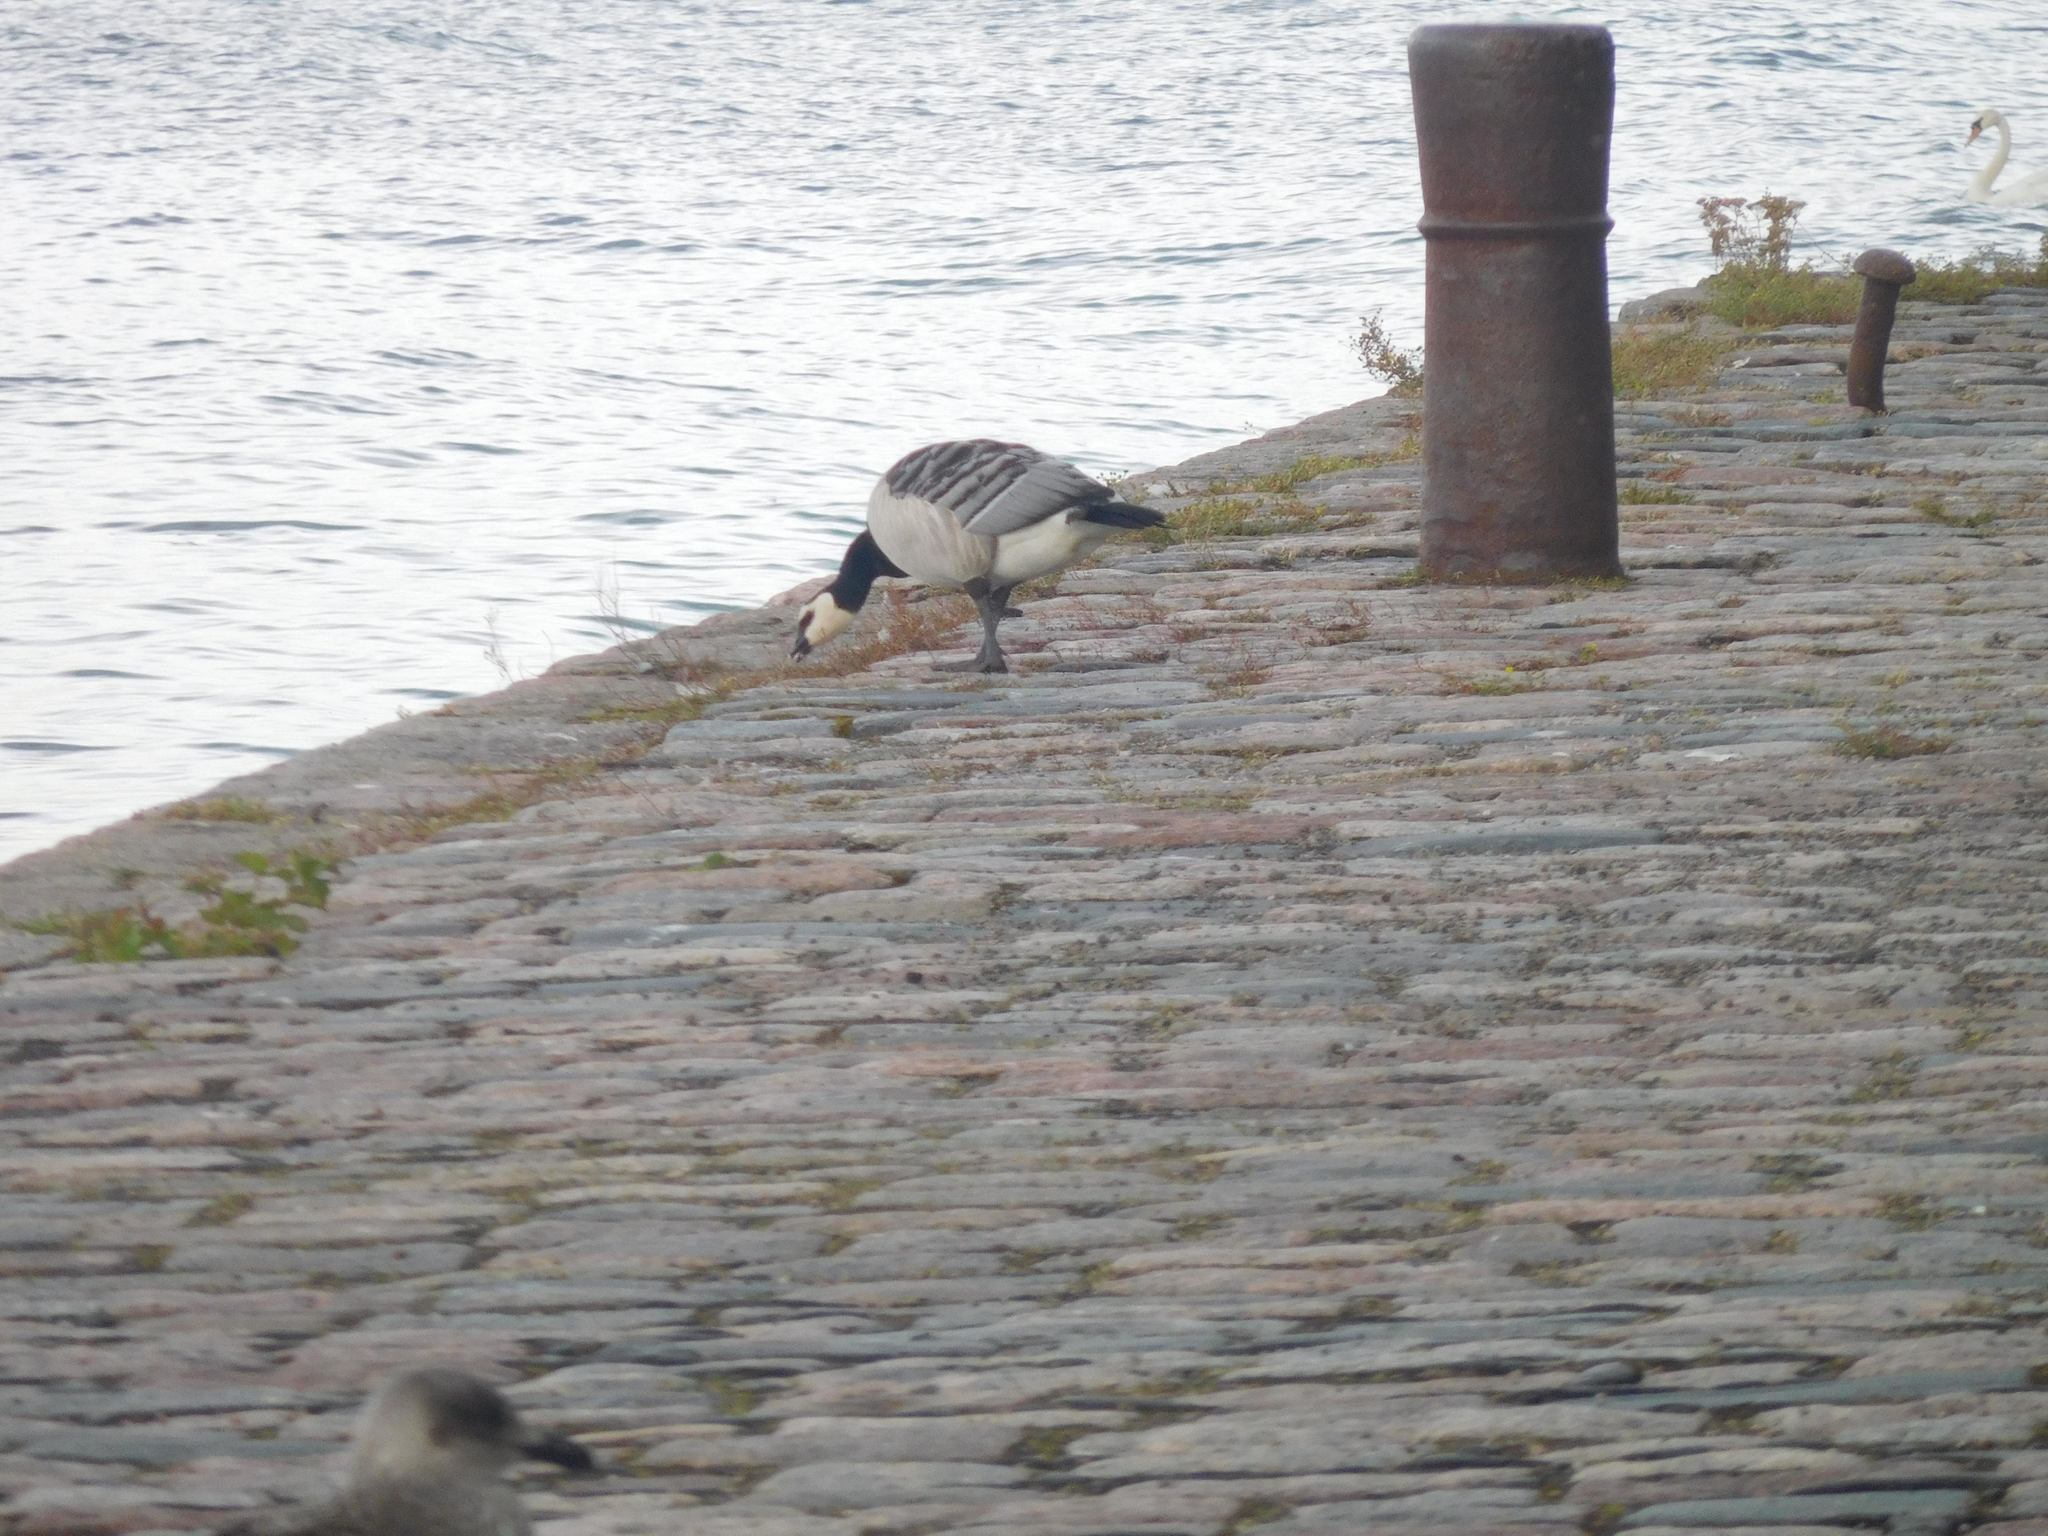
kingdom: Animalia
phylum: Chordata
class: Aves
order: Anseriformes
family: Anatidae
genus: Branta
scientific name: Branta leucopsis
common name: Barnacle goose
